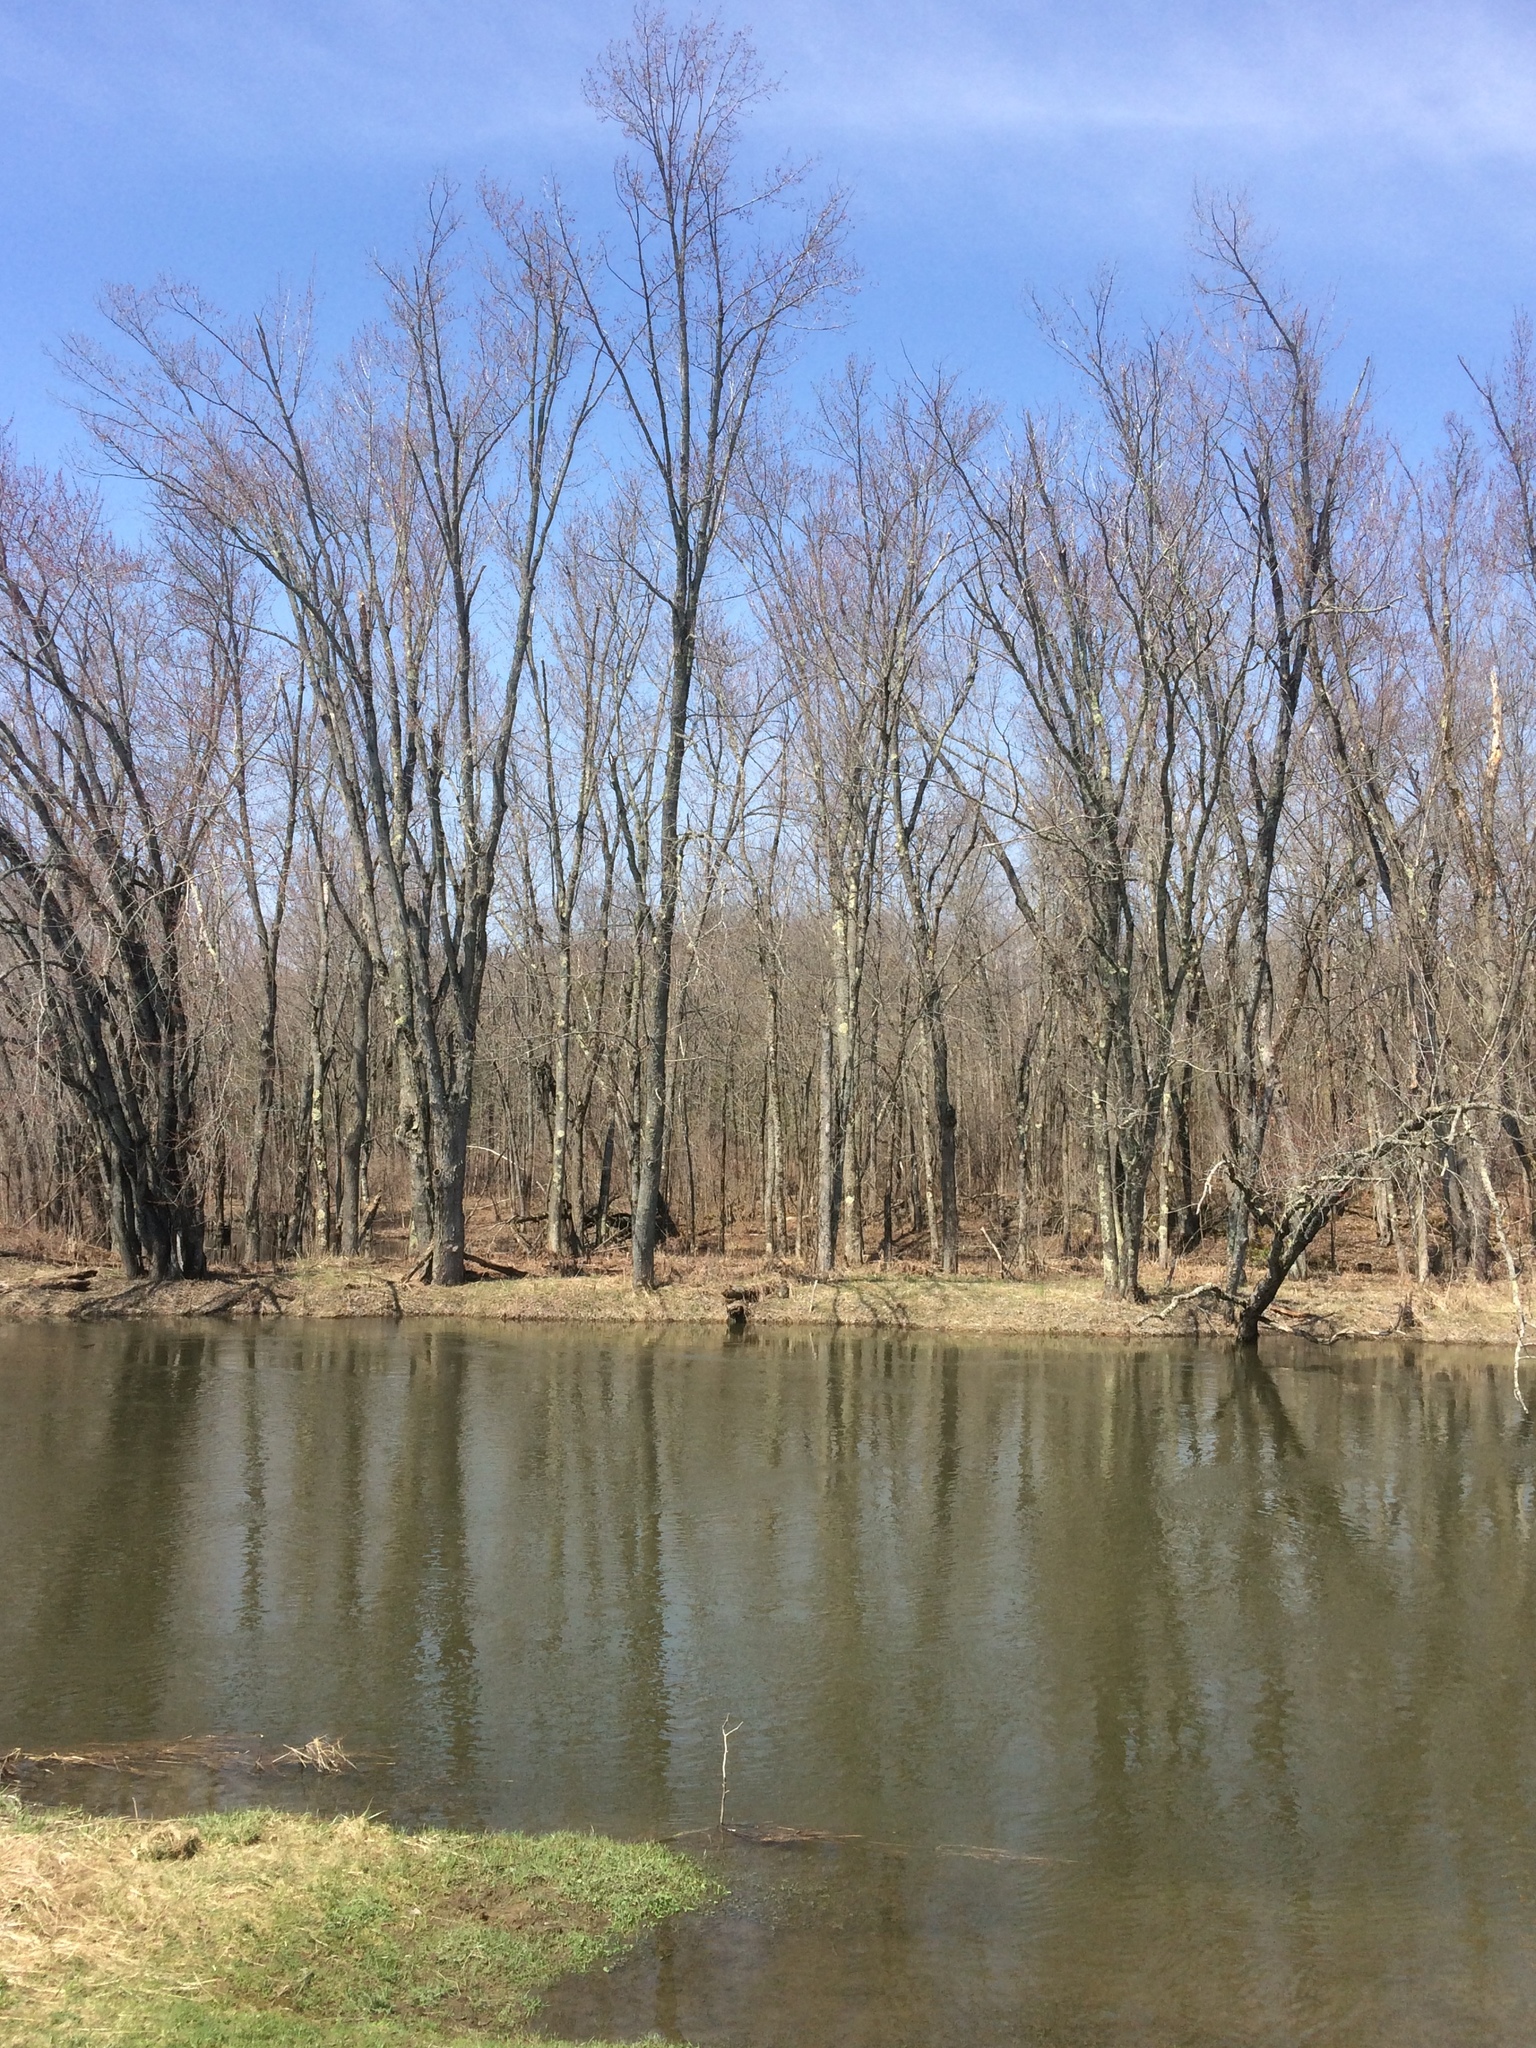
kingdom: Plantae
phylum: Tracheophyta
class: Magnoliopsida
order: Sapindales
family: Sapindaceae
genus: Acer
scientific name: Acer saccharinum
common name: Silver maple
